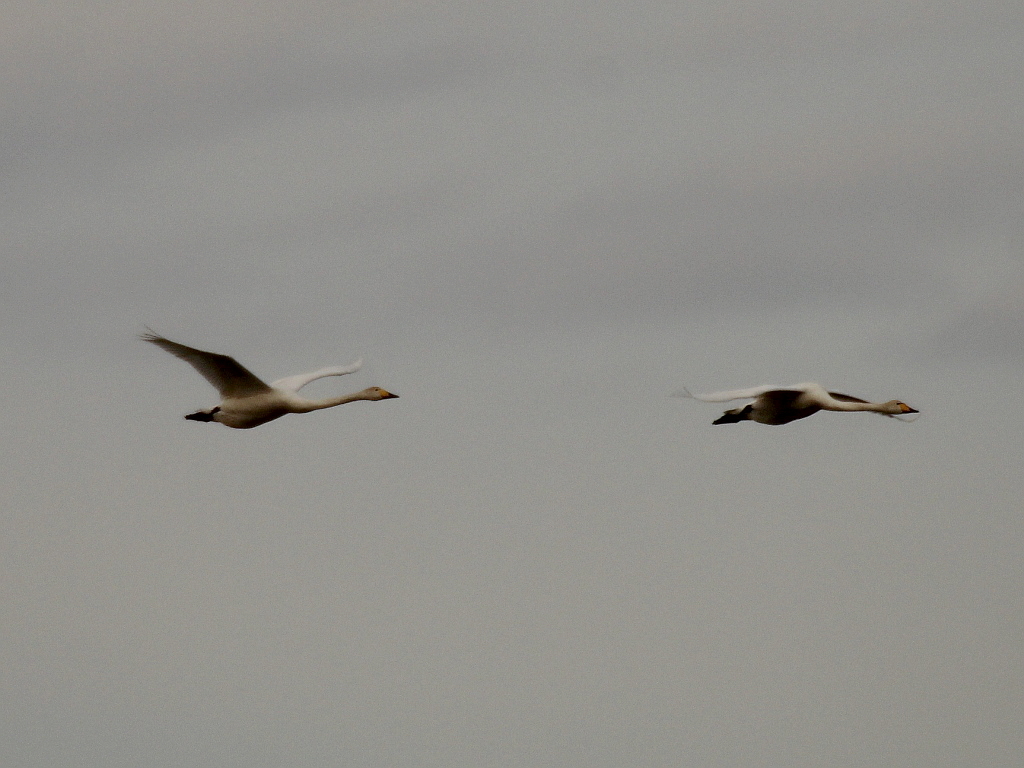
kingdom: Animalia
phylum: Chordata
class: Aves
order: Anseriformes
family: Anatidae
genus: Cygnus
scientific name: Cygnus cygnus
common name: Whooper swan
